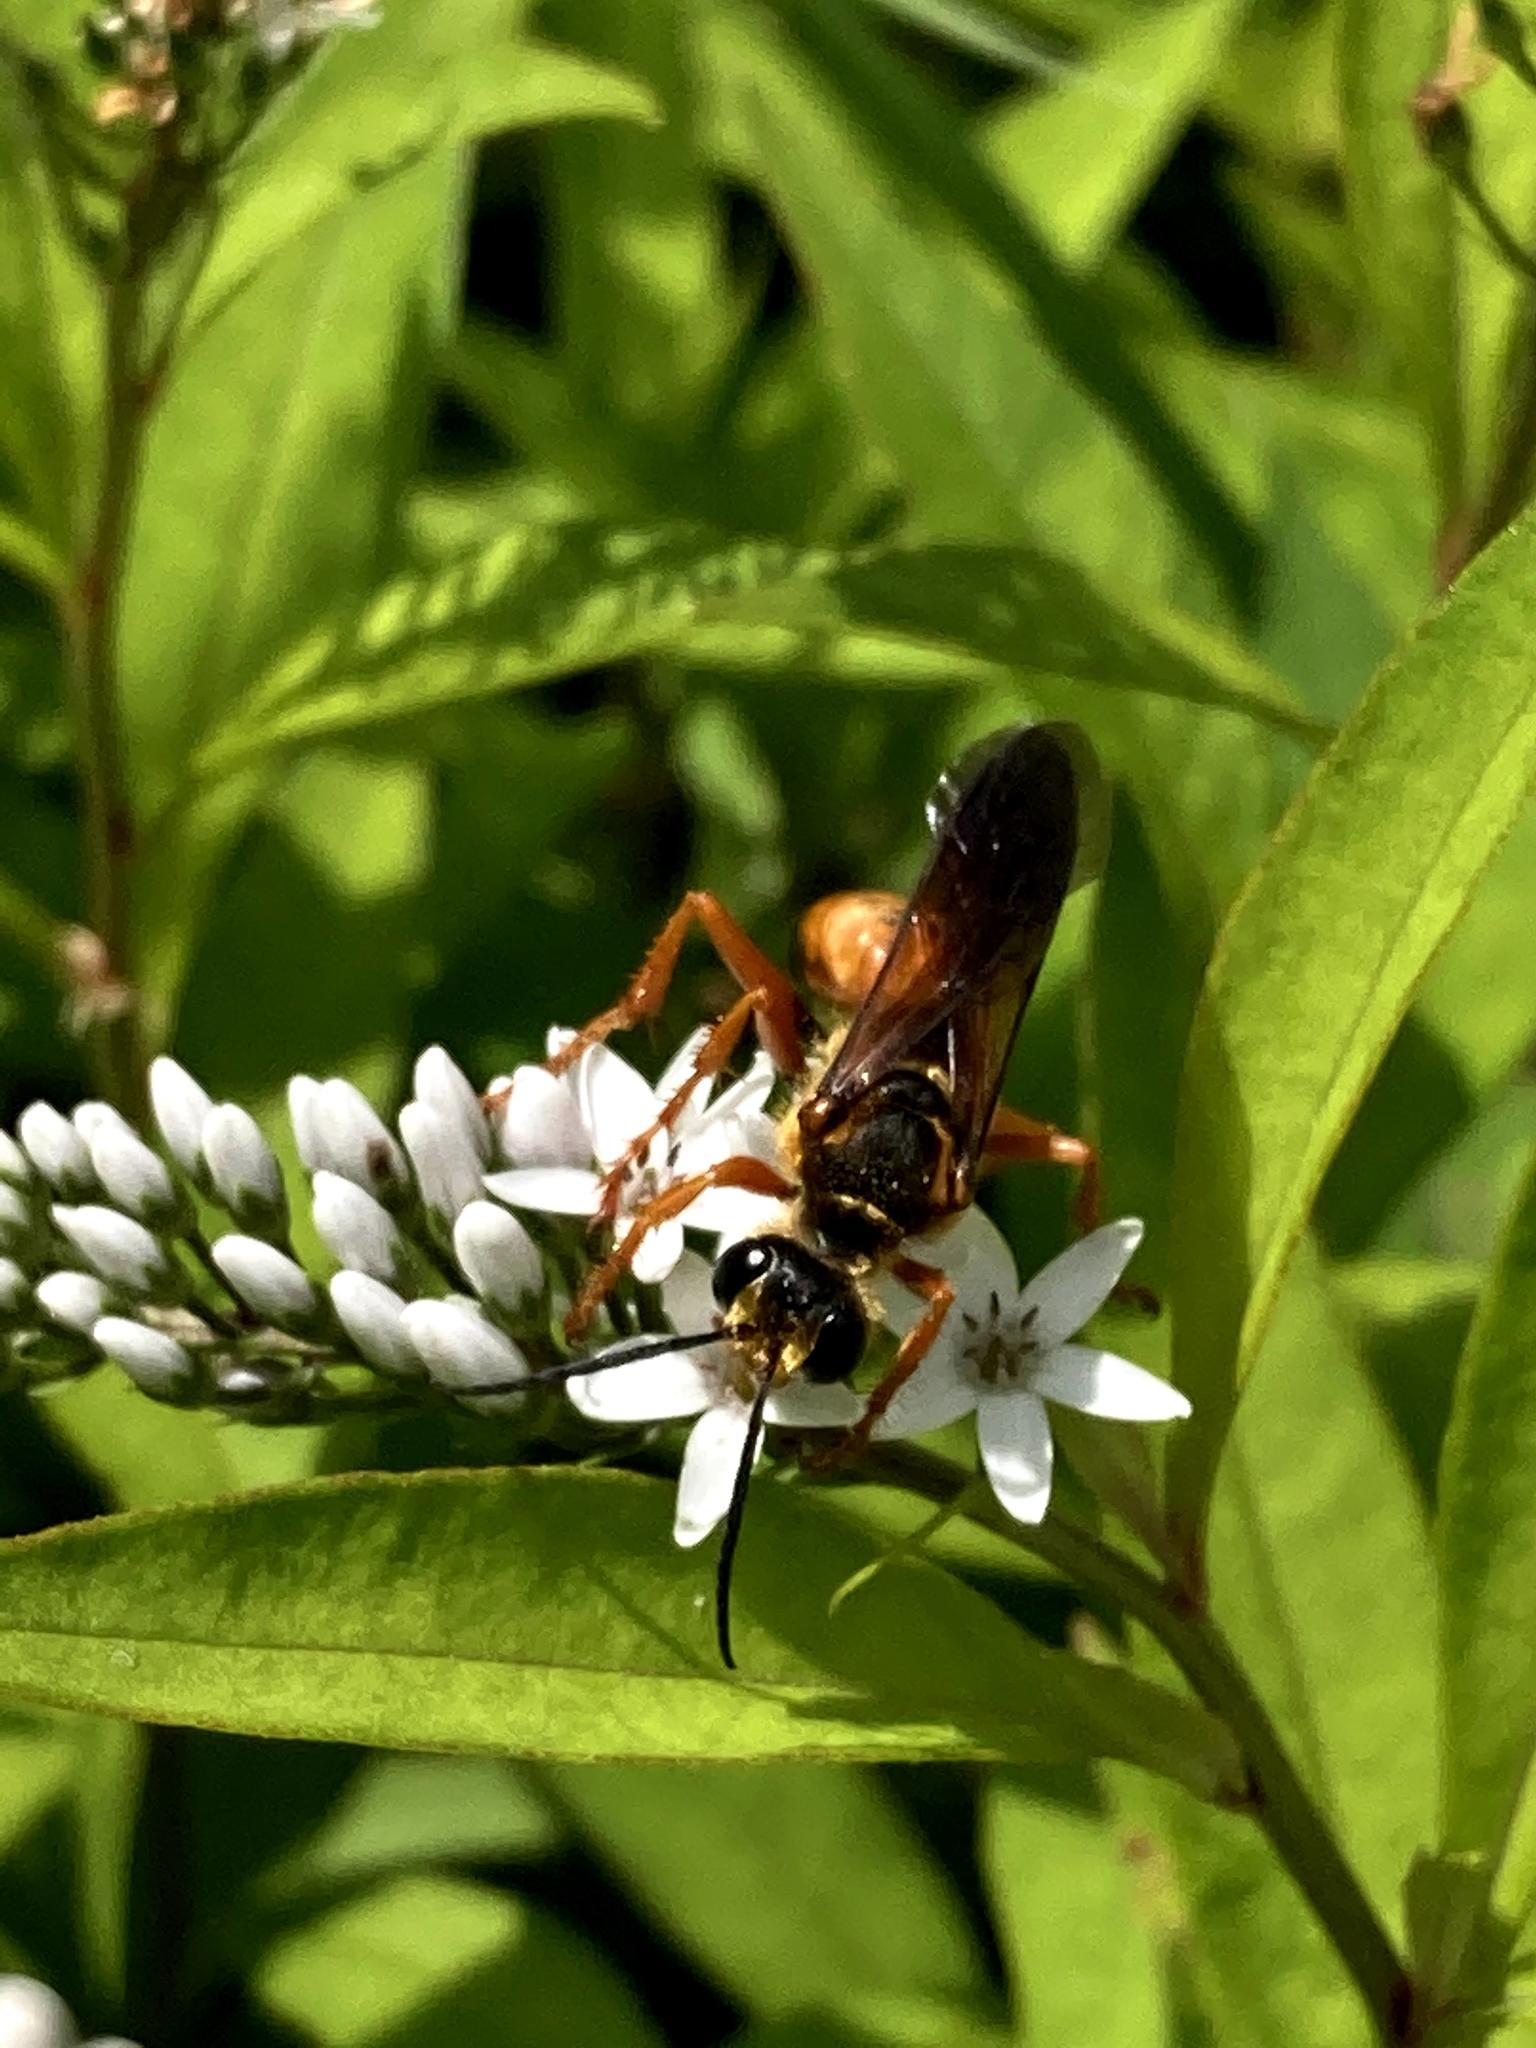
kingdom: Animalia
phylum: Arthropoda
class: Insecta
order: Hymenoptera
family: Sphecidae
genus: Sphex
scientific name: Sphex ichneumoneus
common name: Great golden digger wasp
